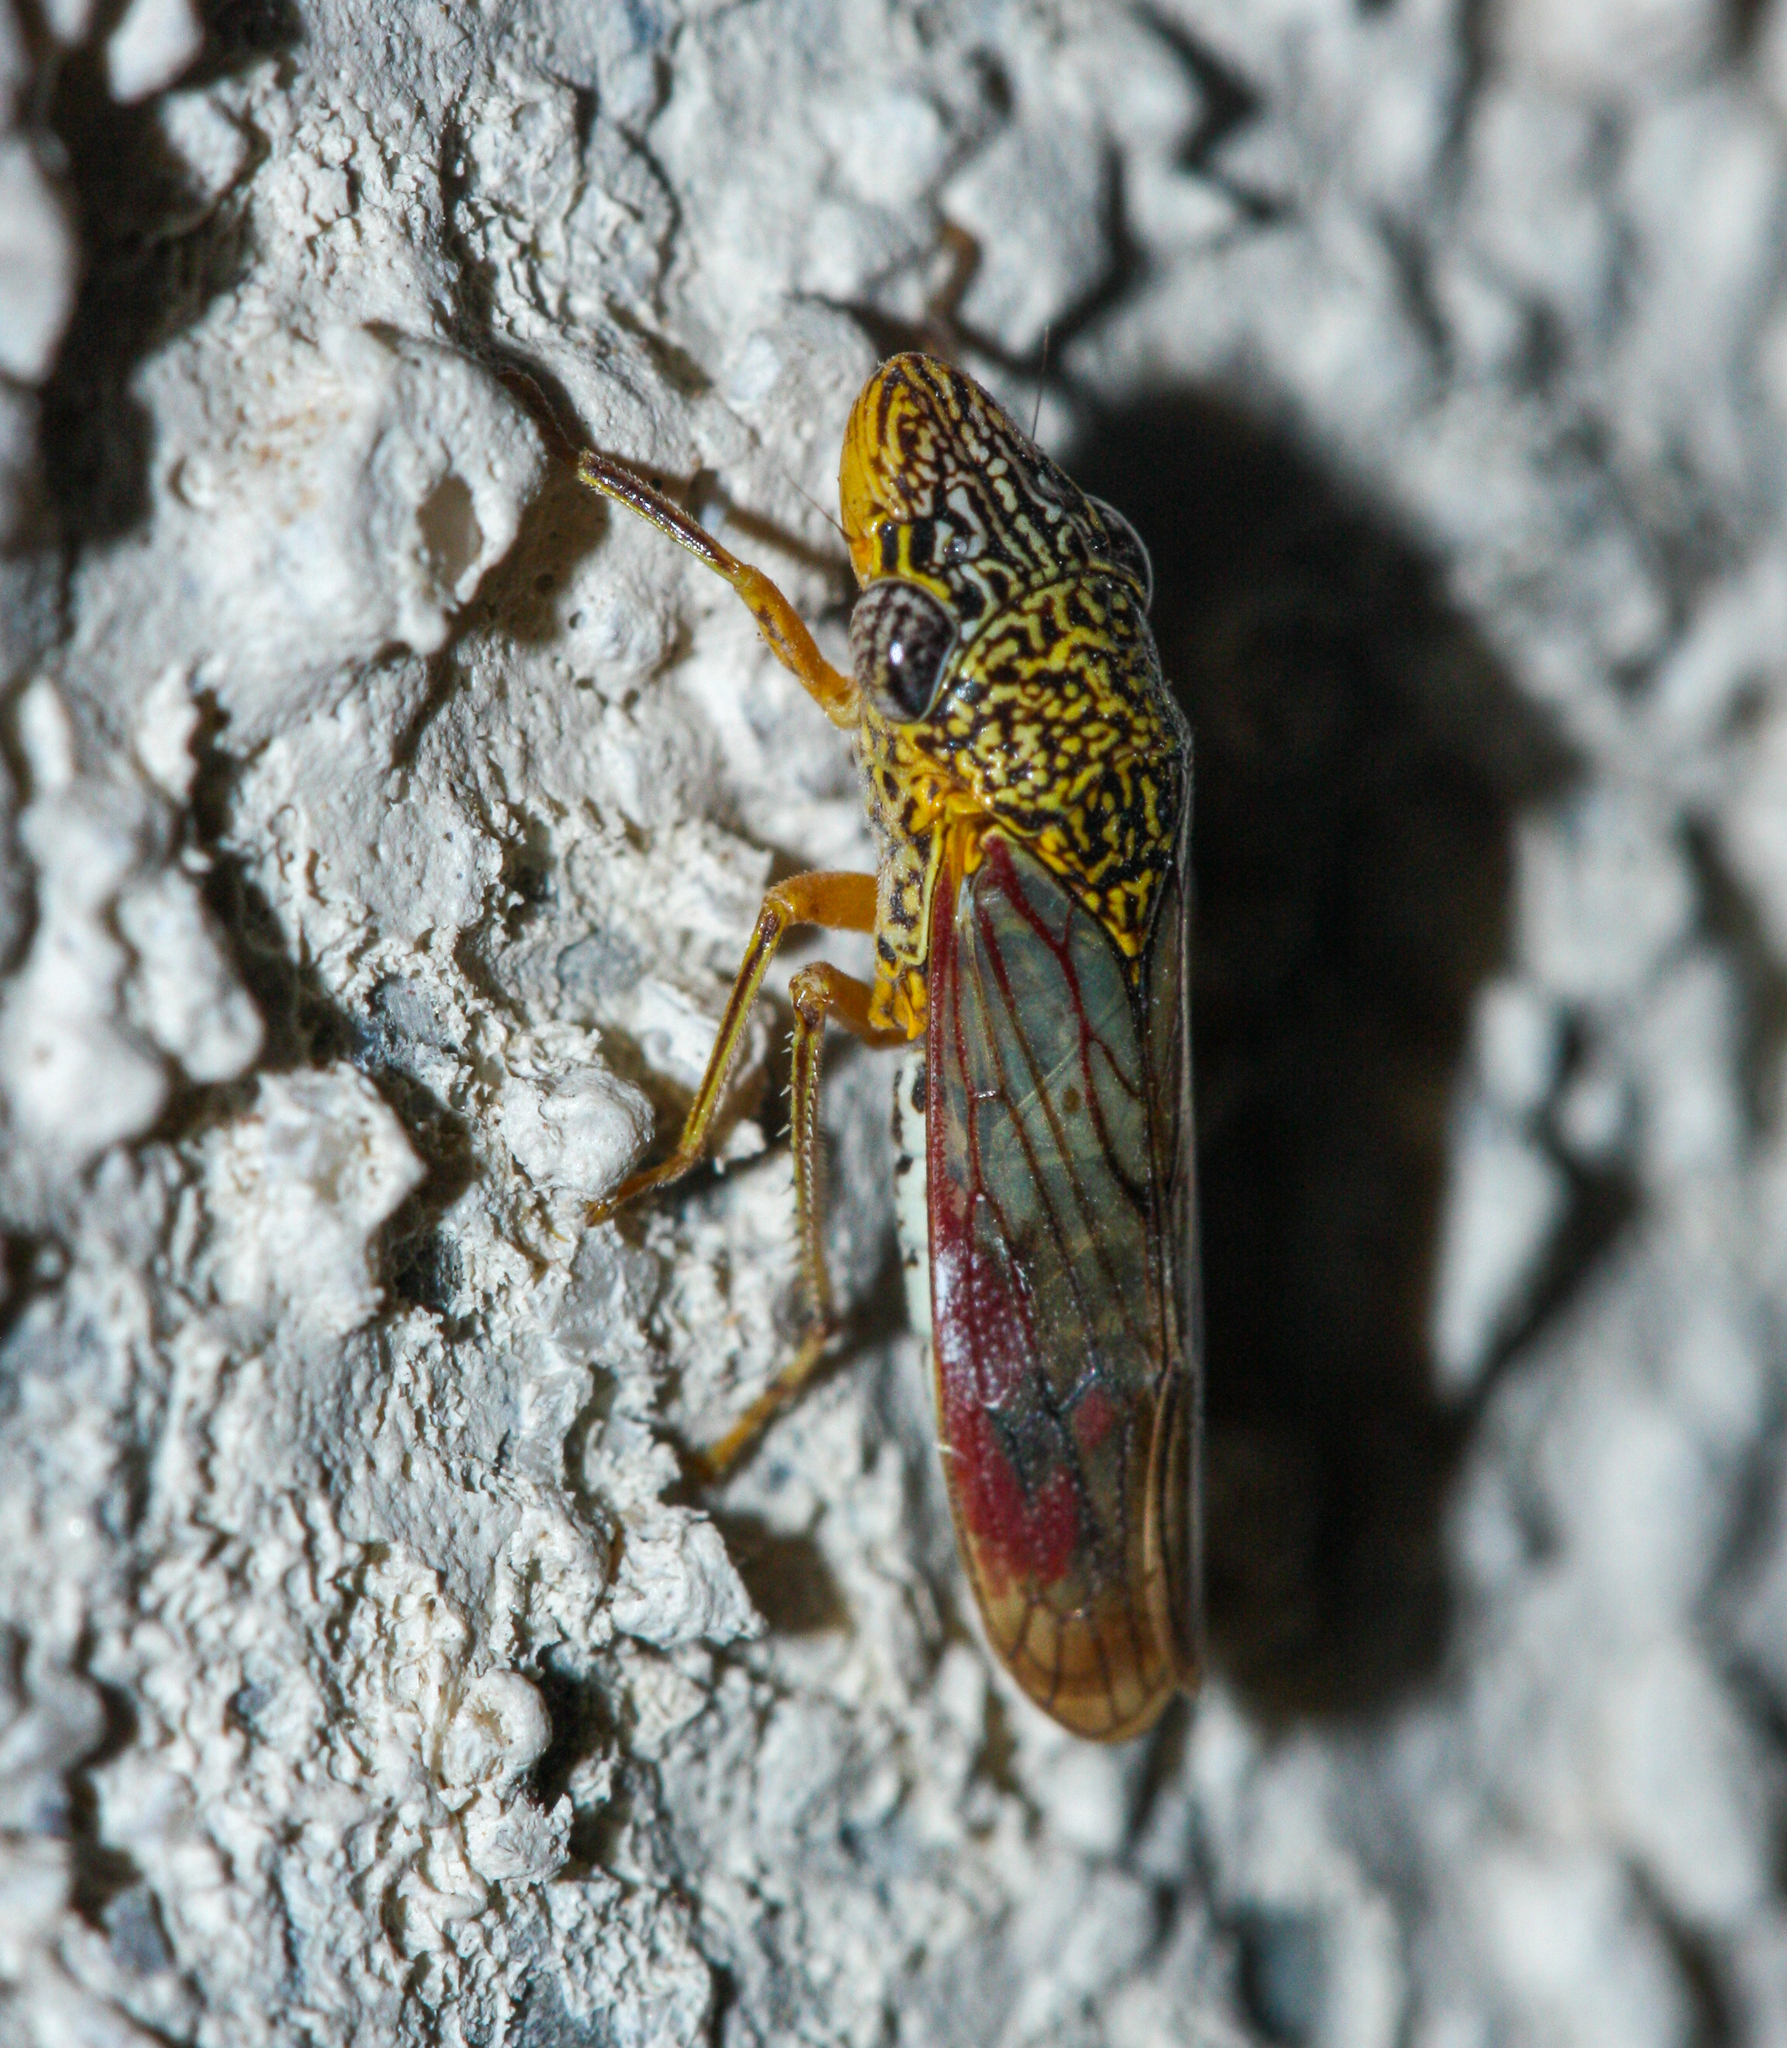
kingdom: Animalia
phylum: Arthropoda
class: Insecta
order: Hemiptera
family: Cicadellidae
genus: Homalodisca
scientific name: Homalodisca liturata
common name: Lacertate sharpshooter
